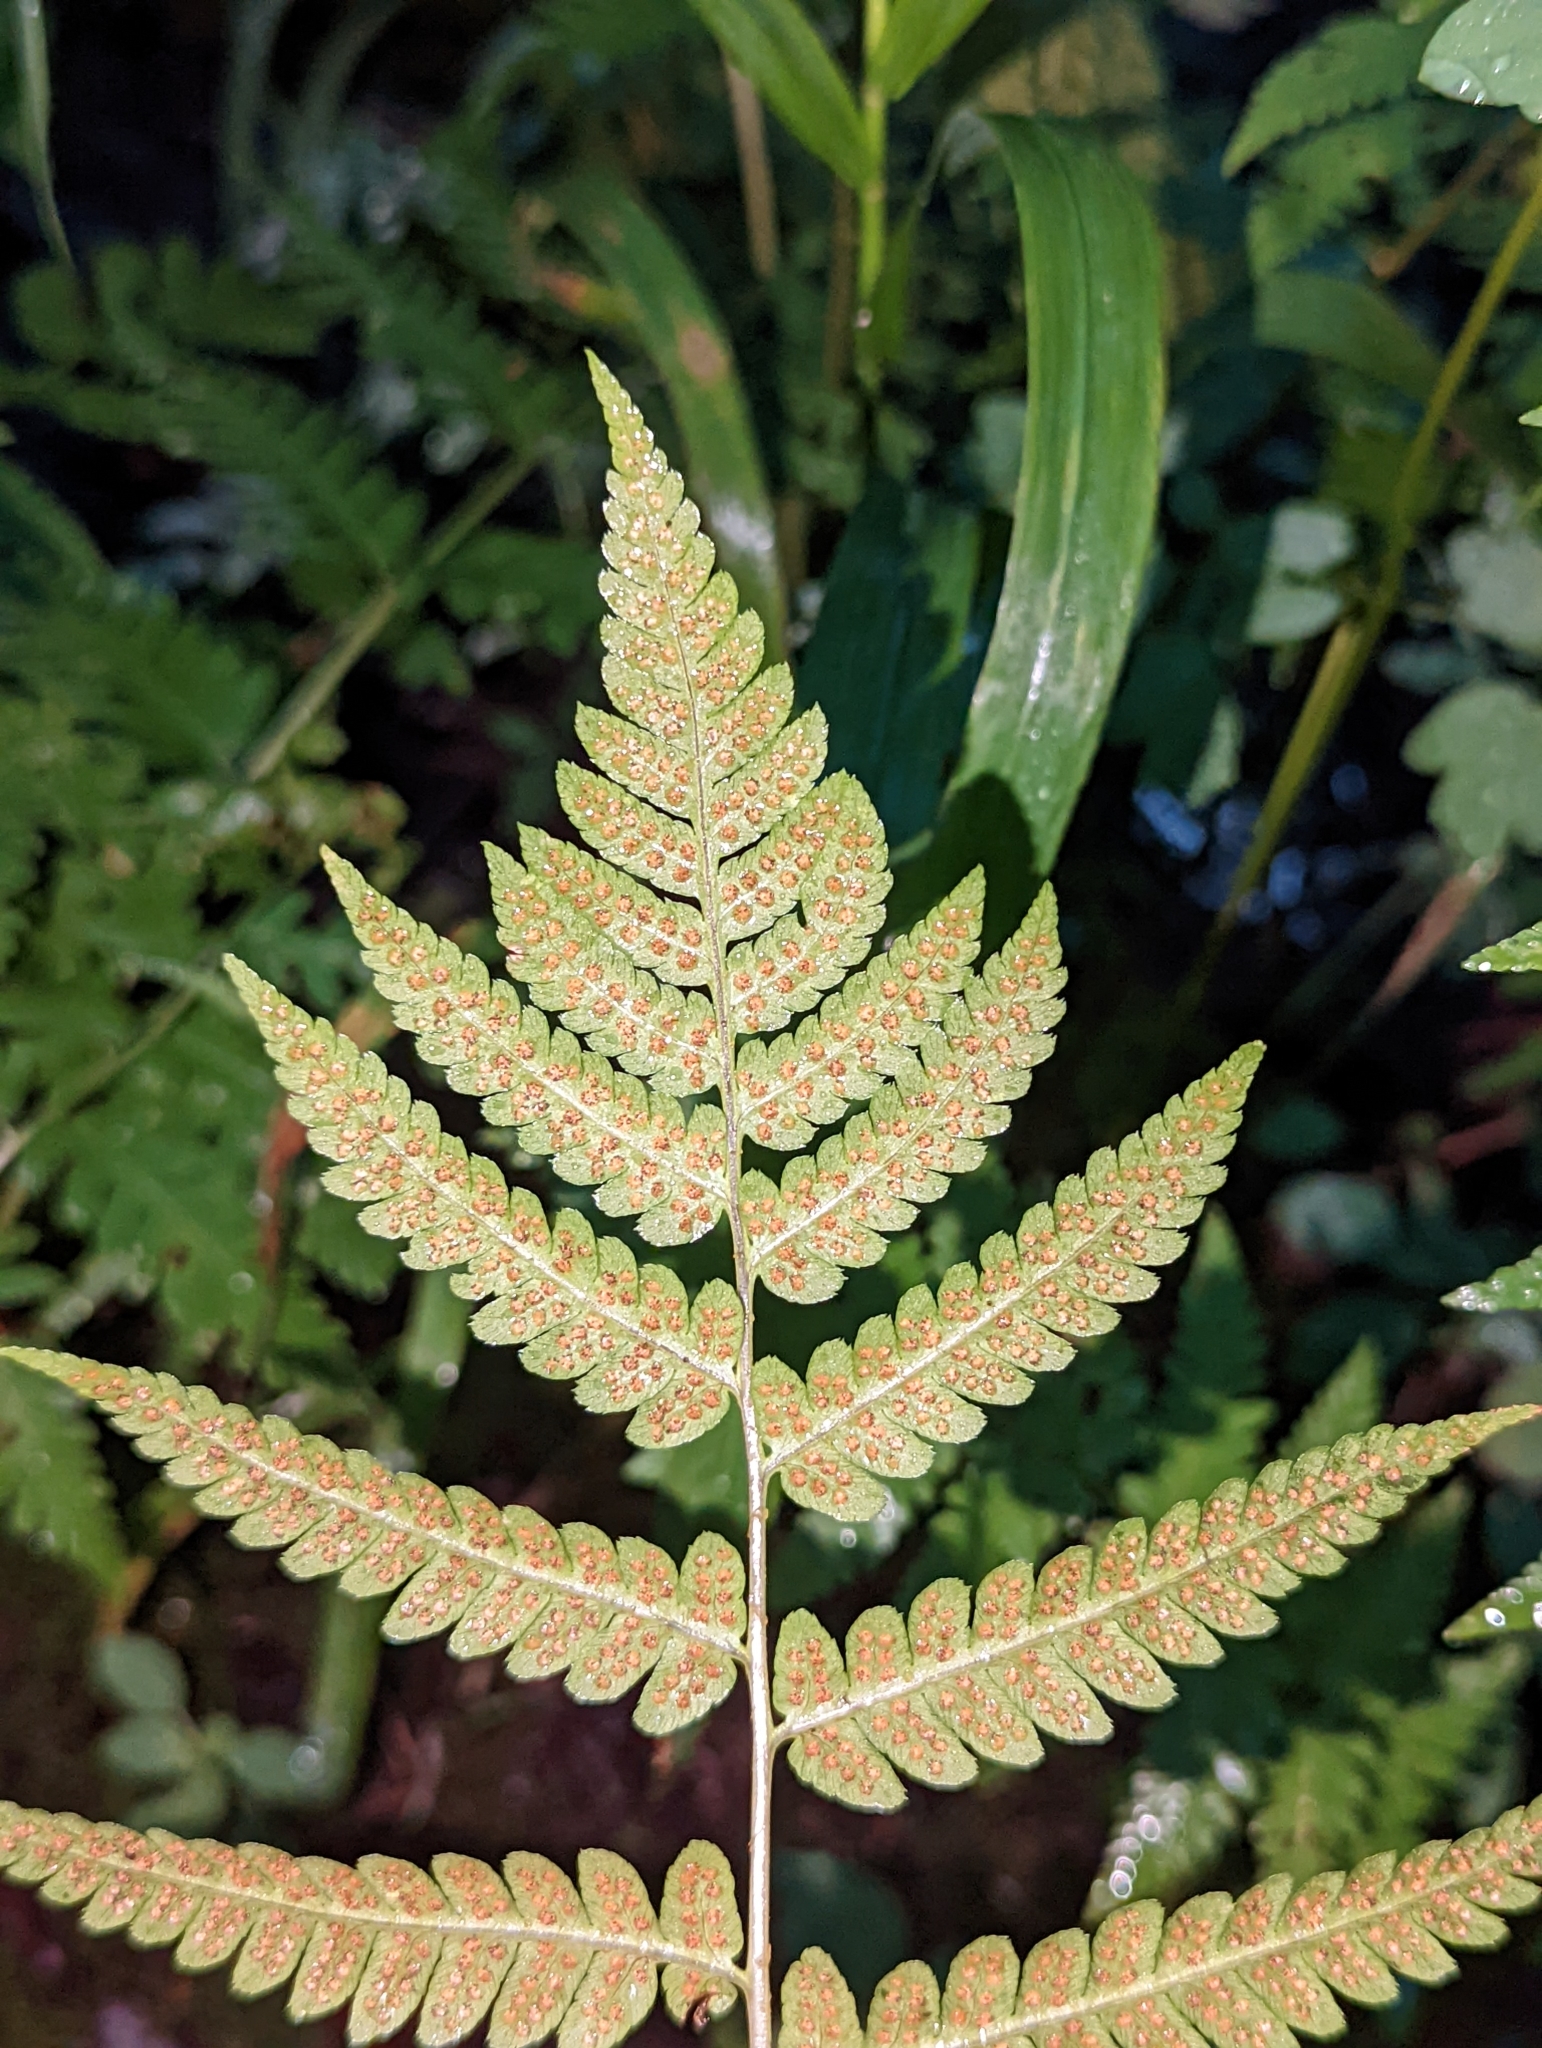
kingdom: Plantae
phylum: Tracheophyta
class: Polypodiopsida
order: Polypodiales
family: Dryopteridaceae
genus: Dryopteris
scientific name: Dryopteris clintoniana
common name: Clinton's wood fern
